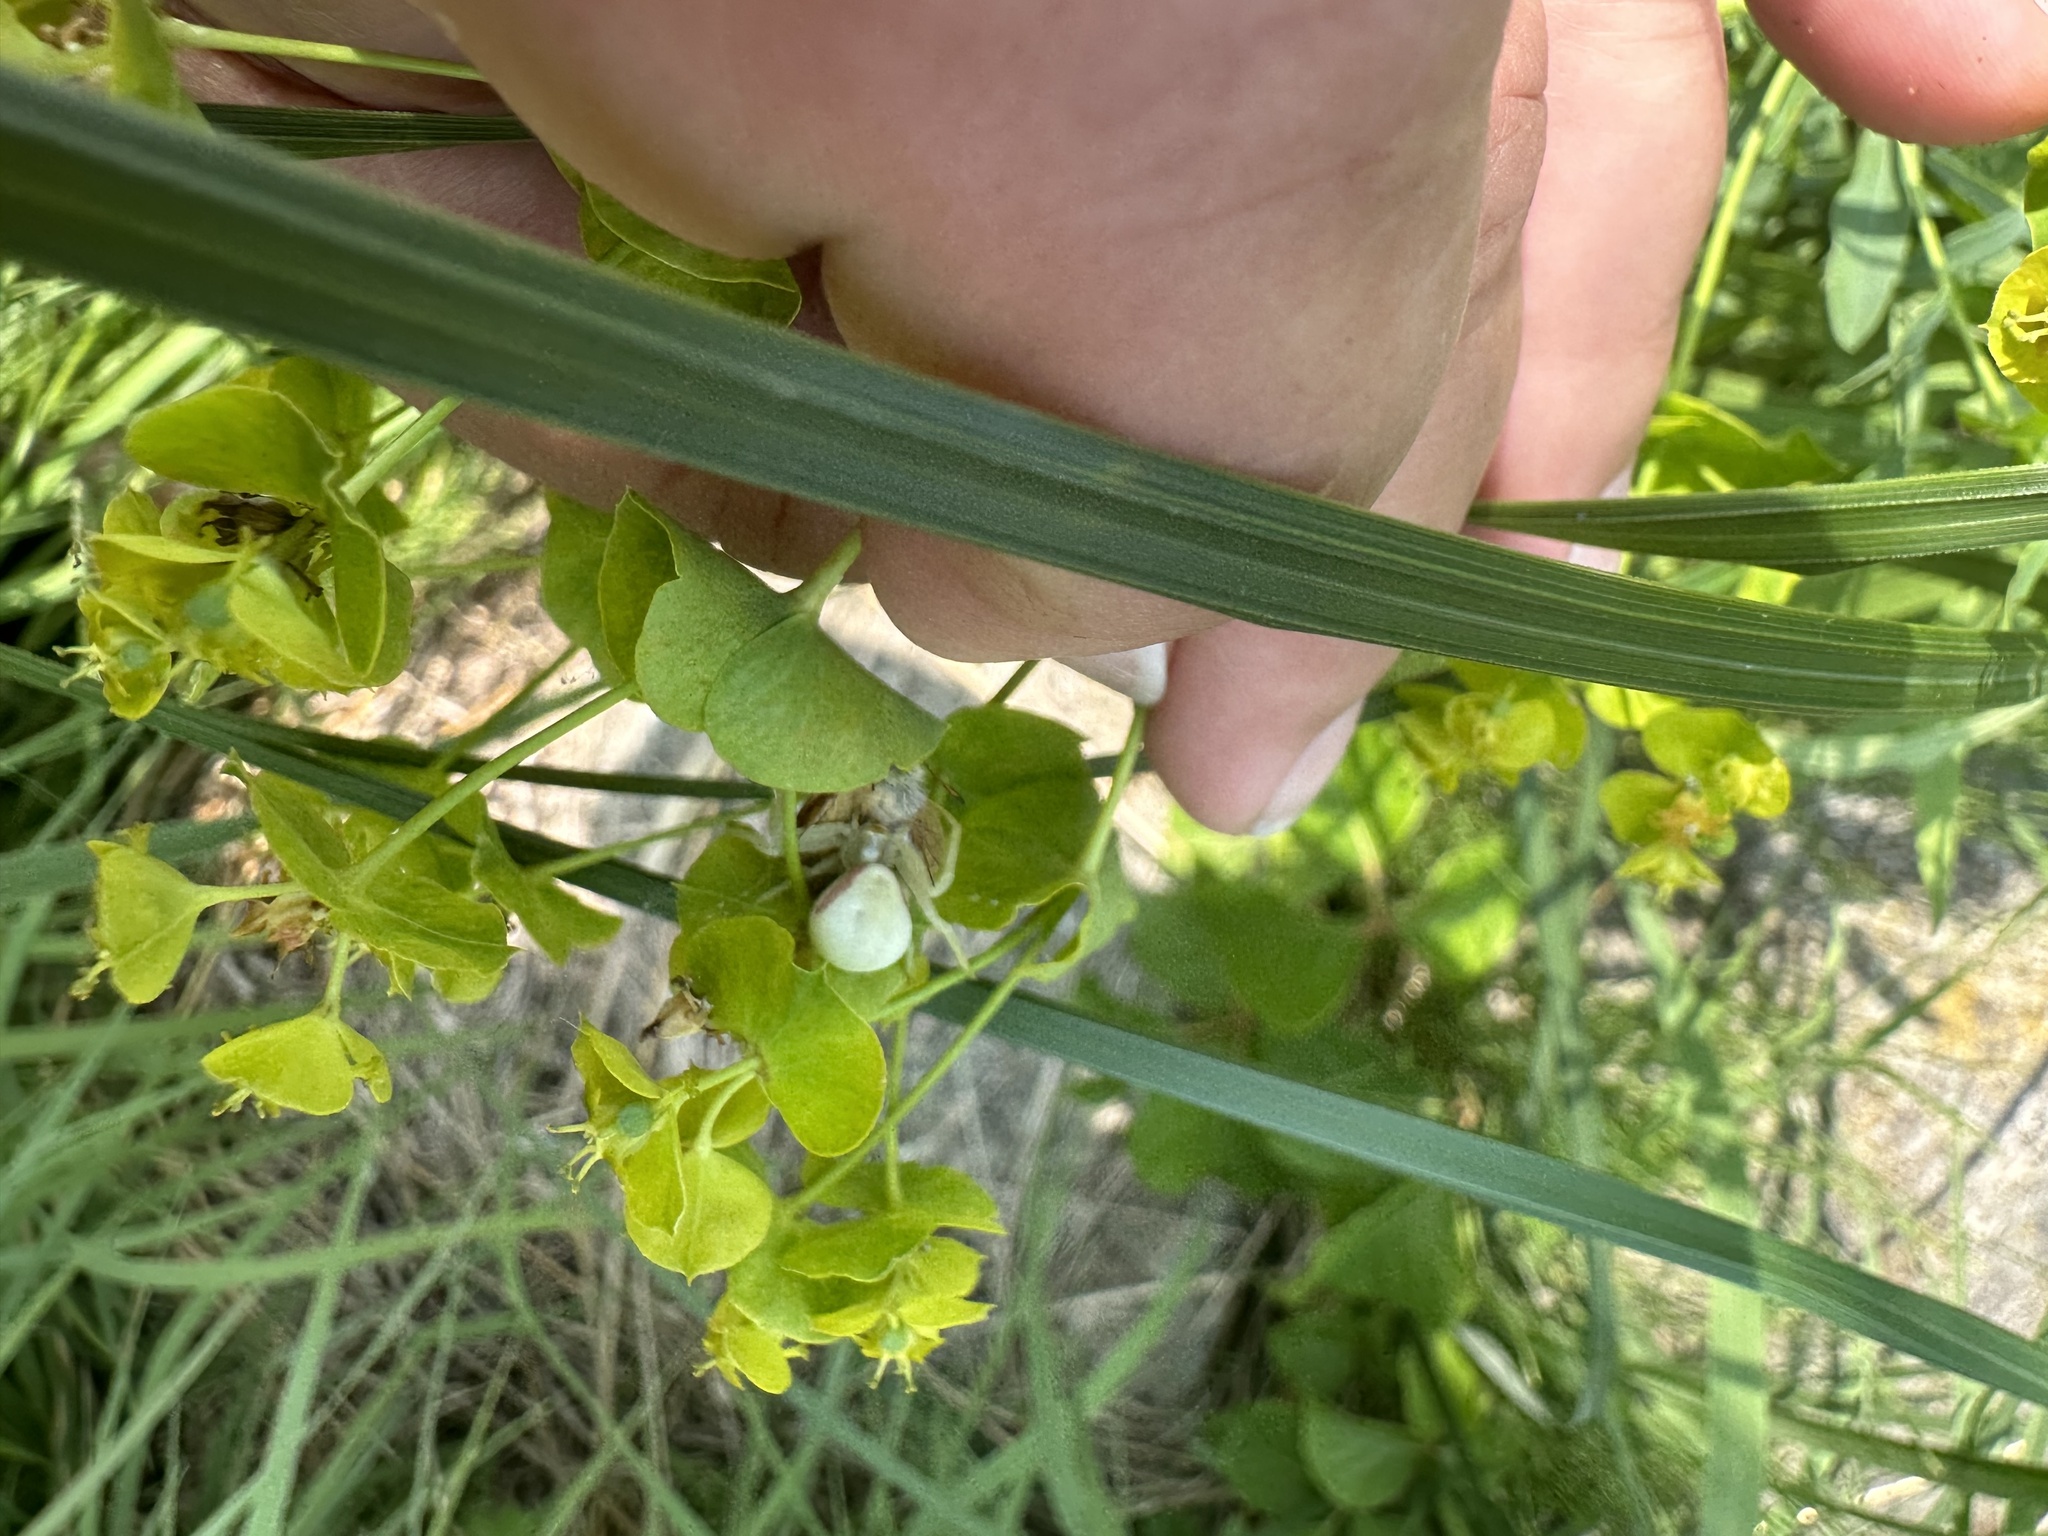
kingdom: Animalia
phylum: Arthropoda
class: Arachnida
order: Araneae
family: Thomisidae
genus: Misumena
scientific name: Misumena vatia
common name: Goldenrod crab spider
